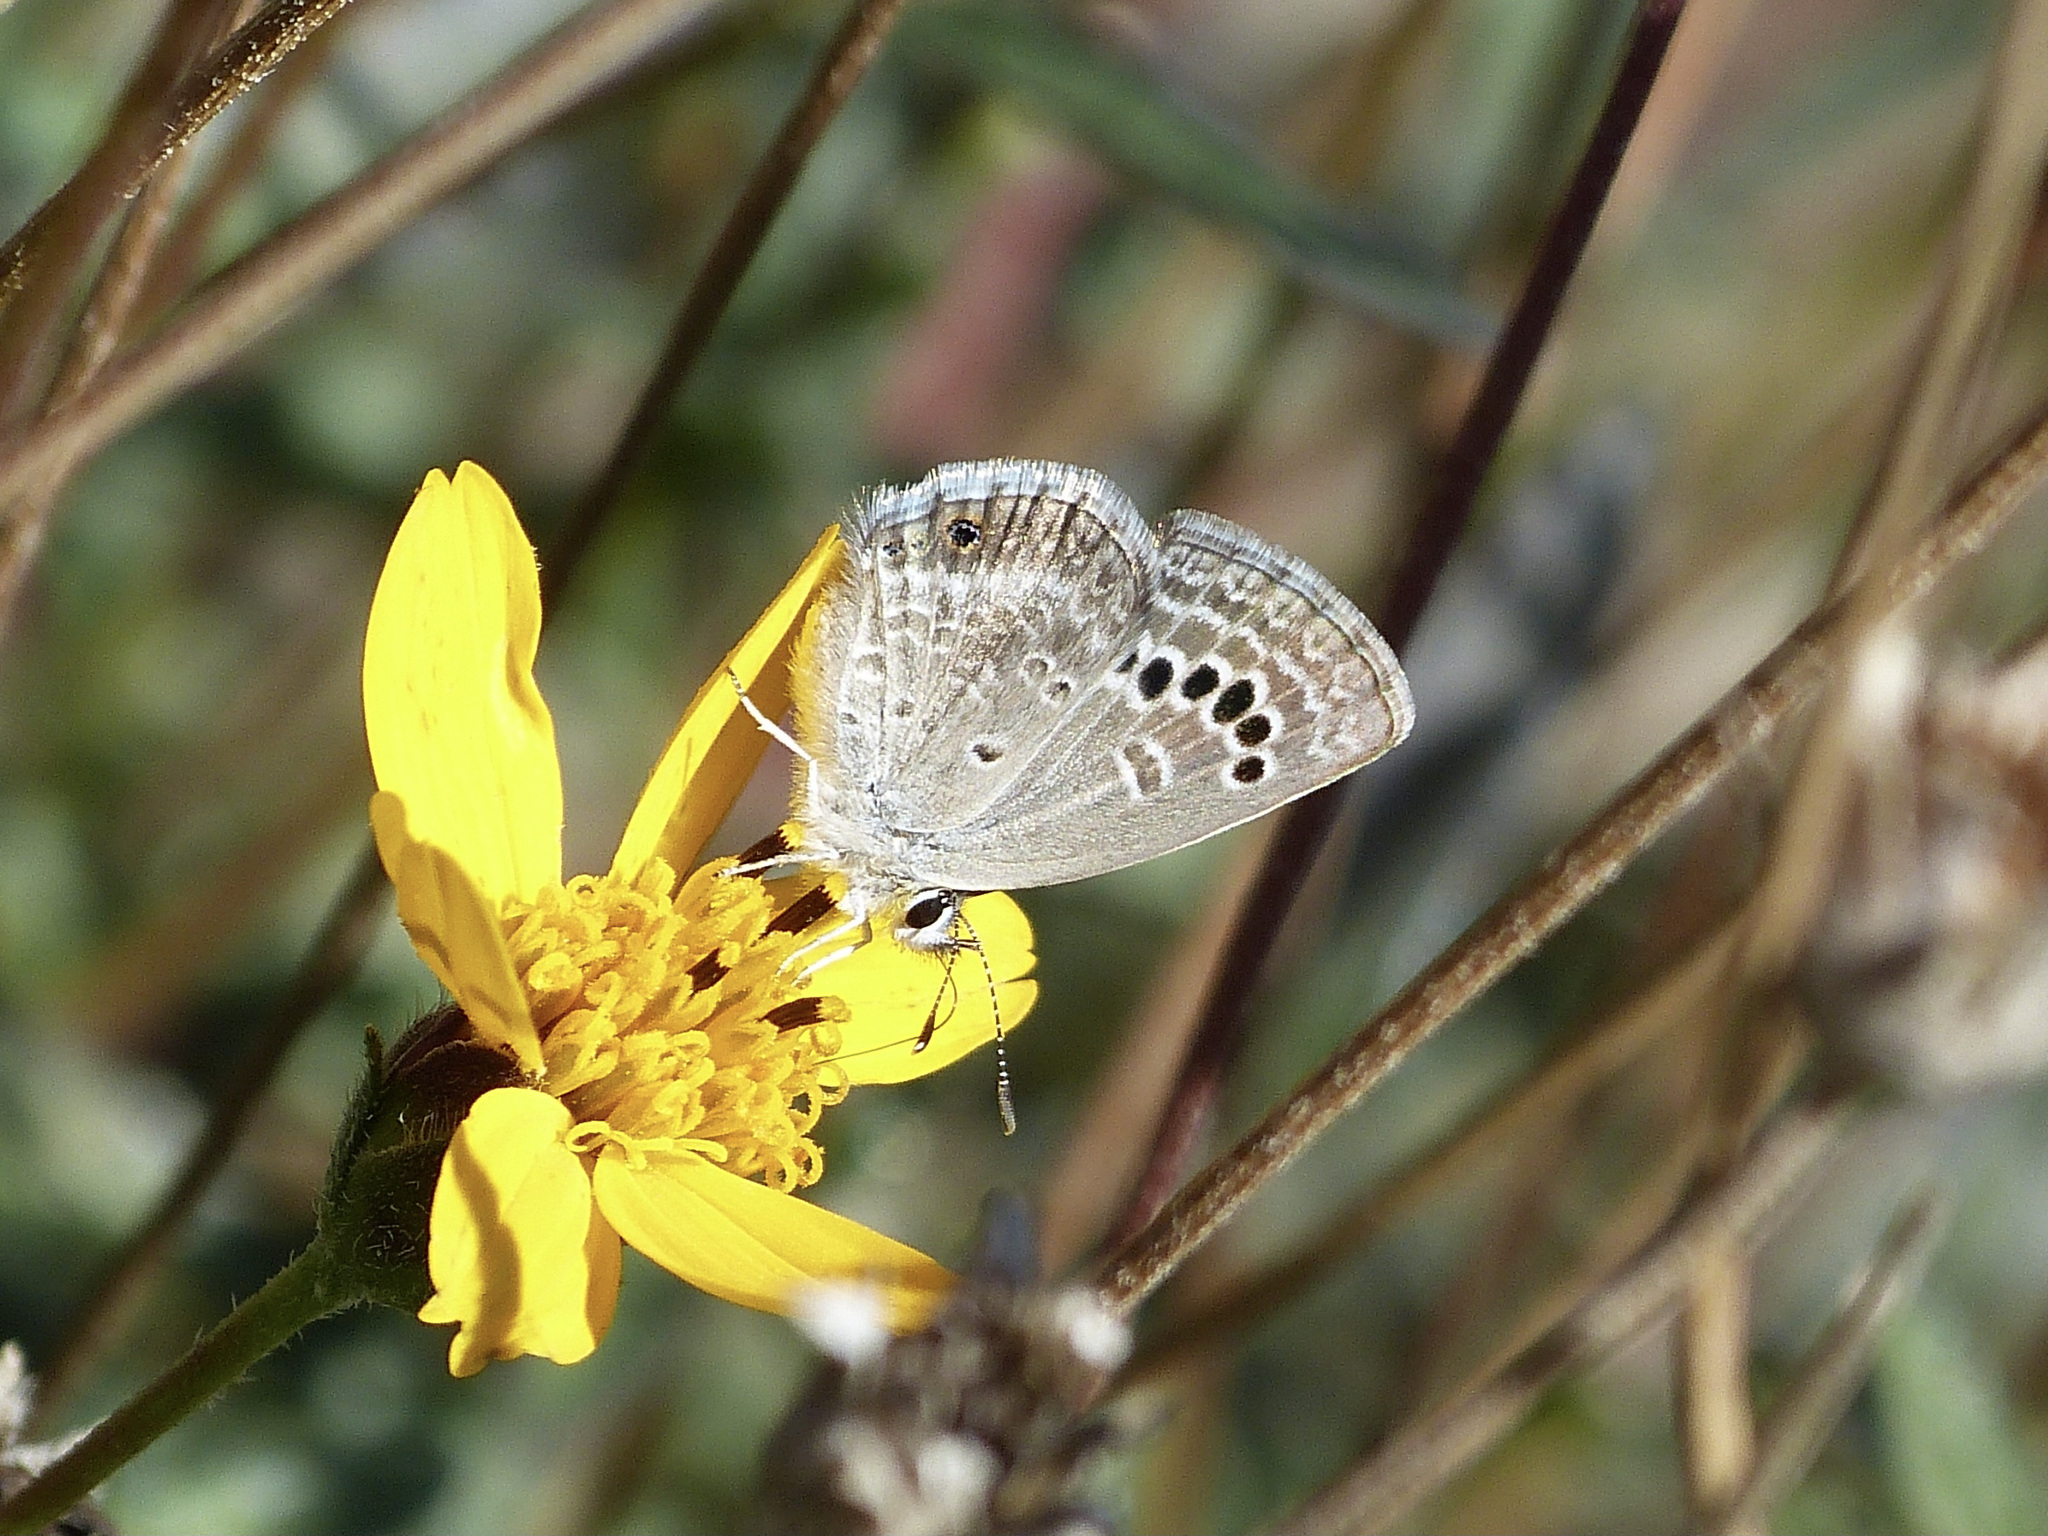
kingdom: Animalia
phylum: Arthropoda
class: Insecta
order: Lepidoptera
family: Lycaenidae
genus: Echinargus
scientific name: Echinargus isola
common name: Reakirt's blue
